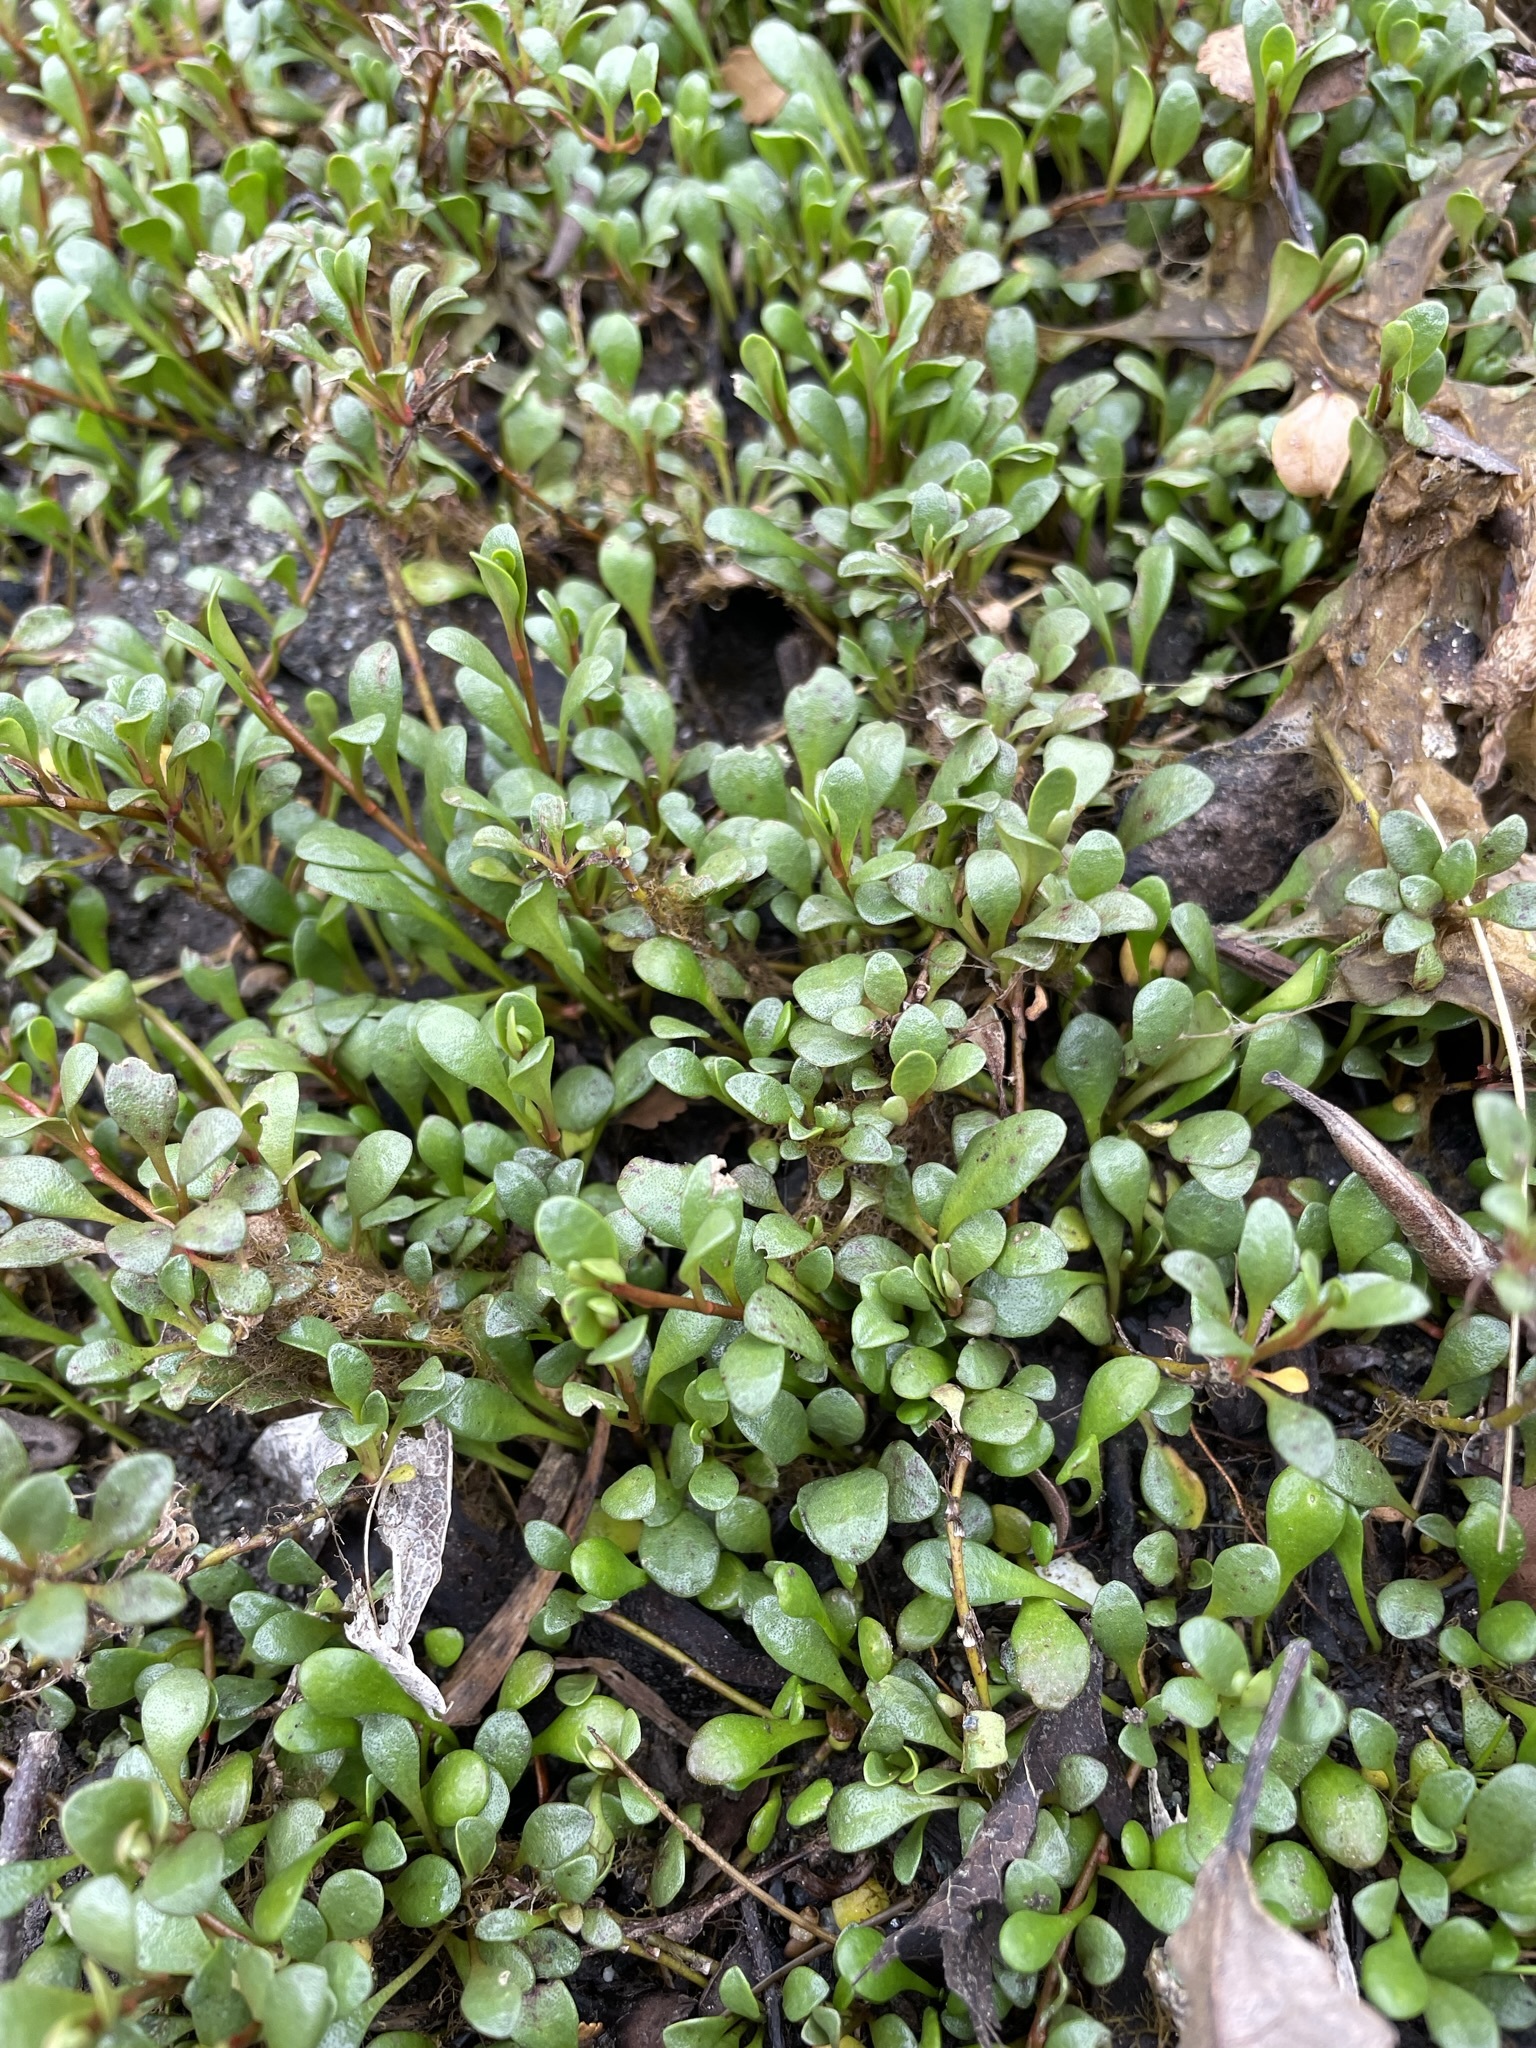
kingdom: Plantae
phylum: Tracheophyta
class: Magnoliopsida
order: Ericales
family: Primulaceae
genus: Samolus
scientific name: Samolus repens
